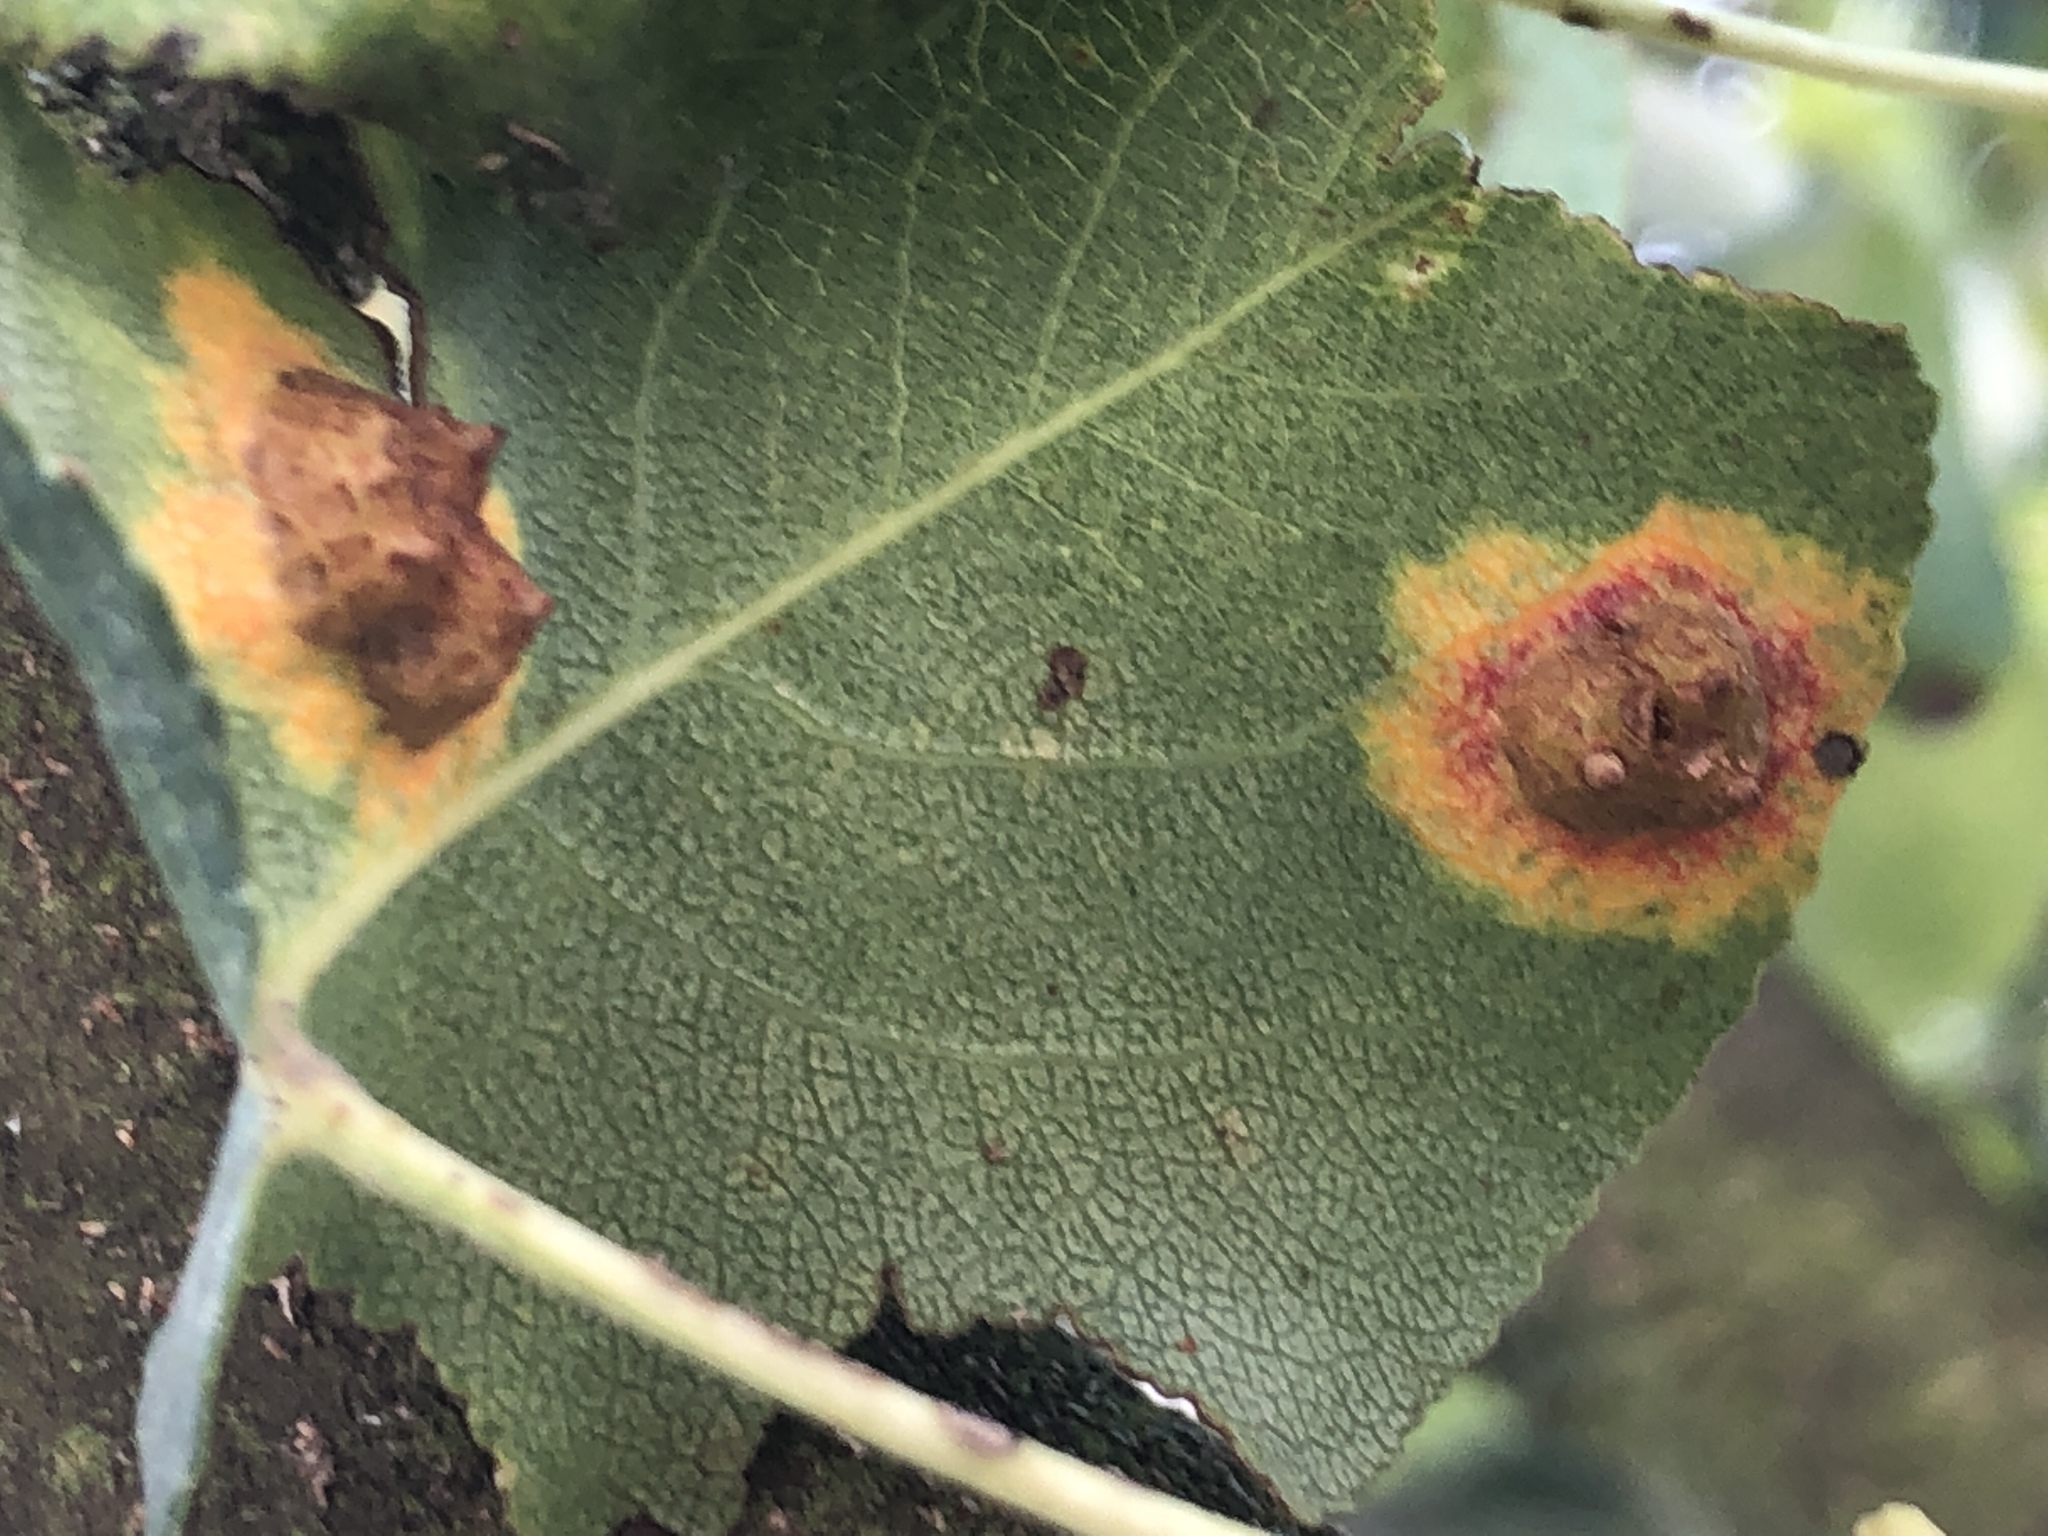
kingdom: Fungi
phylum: Basidiomycota
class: Pucciniomycetes
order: Pucciniales
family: Gymnosporangiaceae
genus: Gymnosporangium
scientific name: Gymnosporangium sabinae
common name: Pear trellis rust fungus
